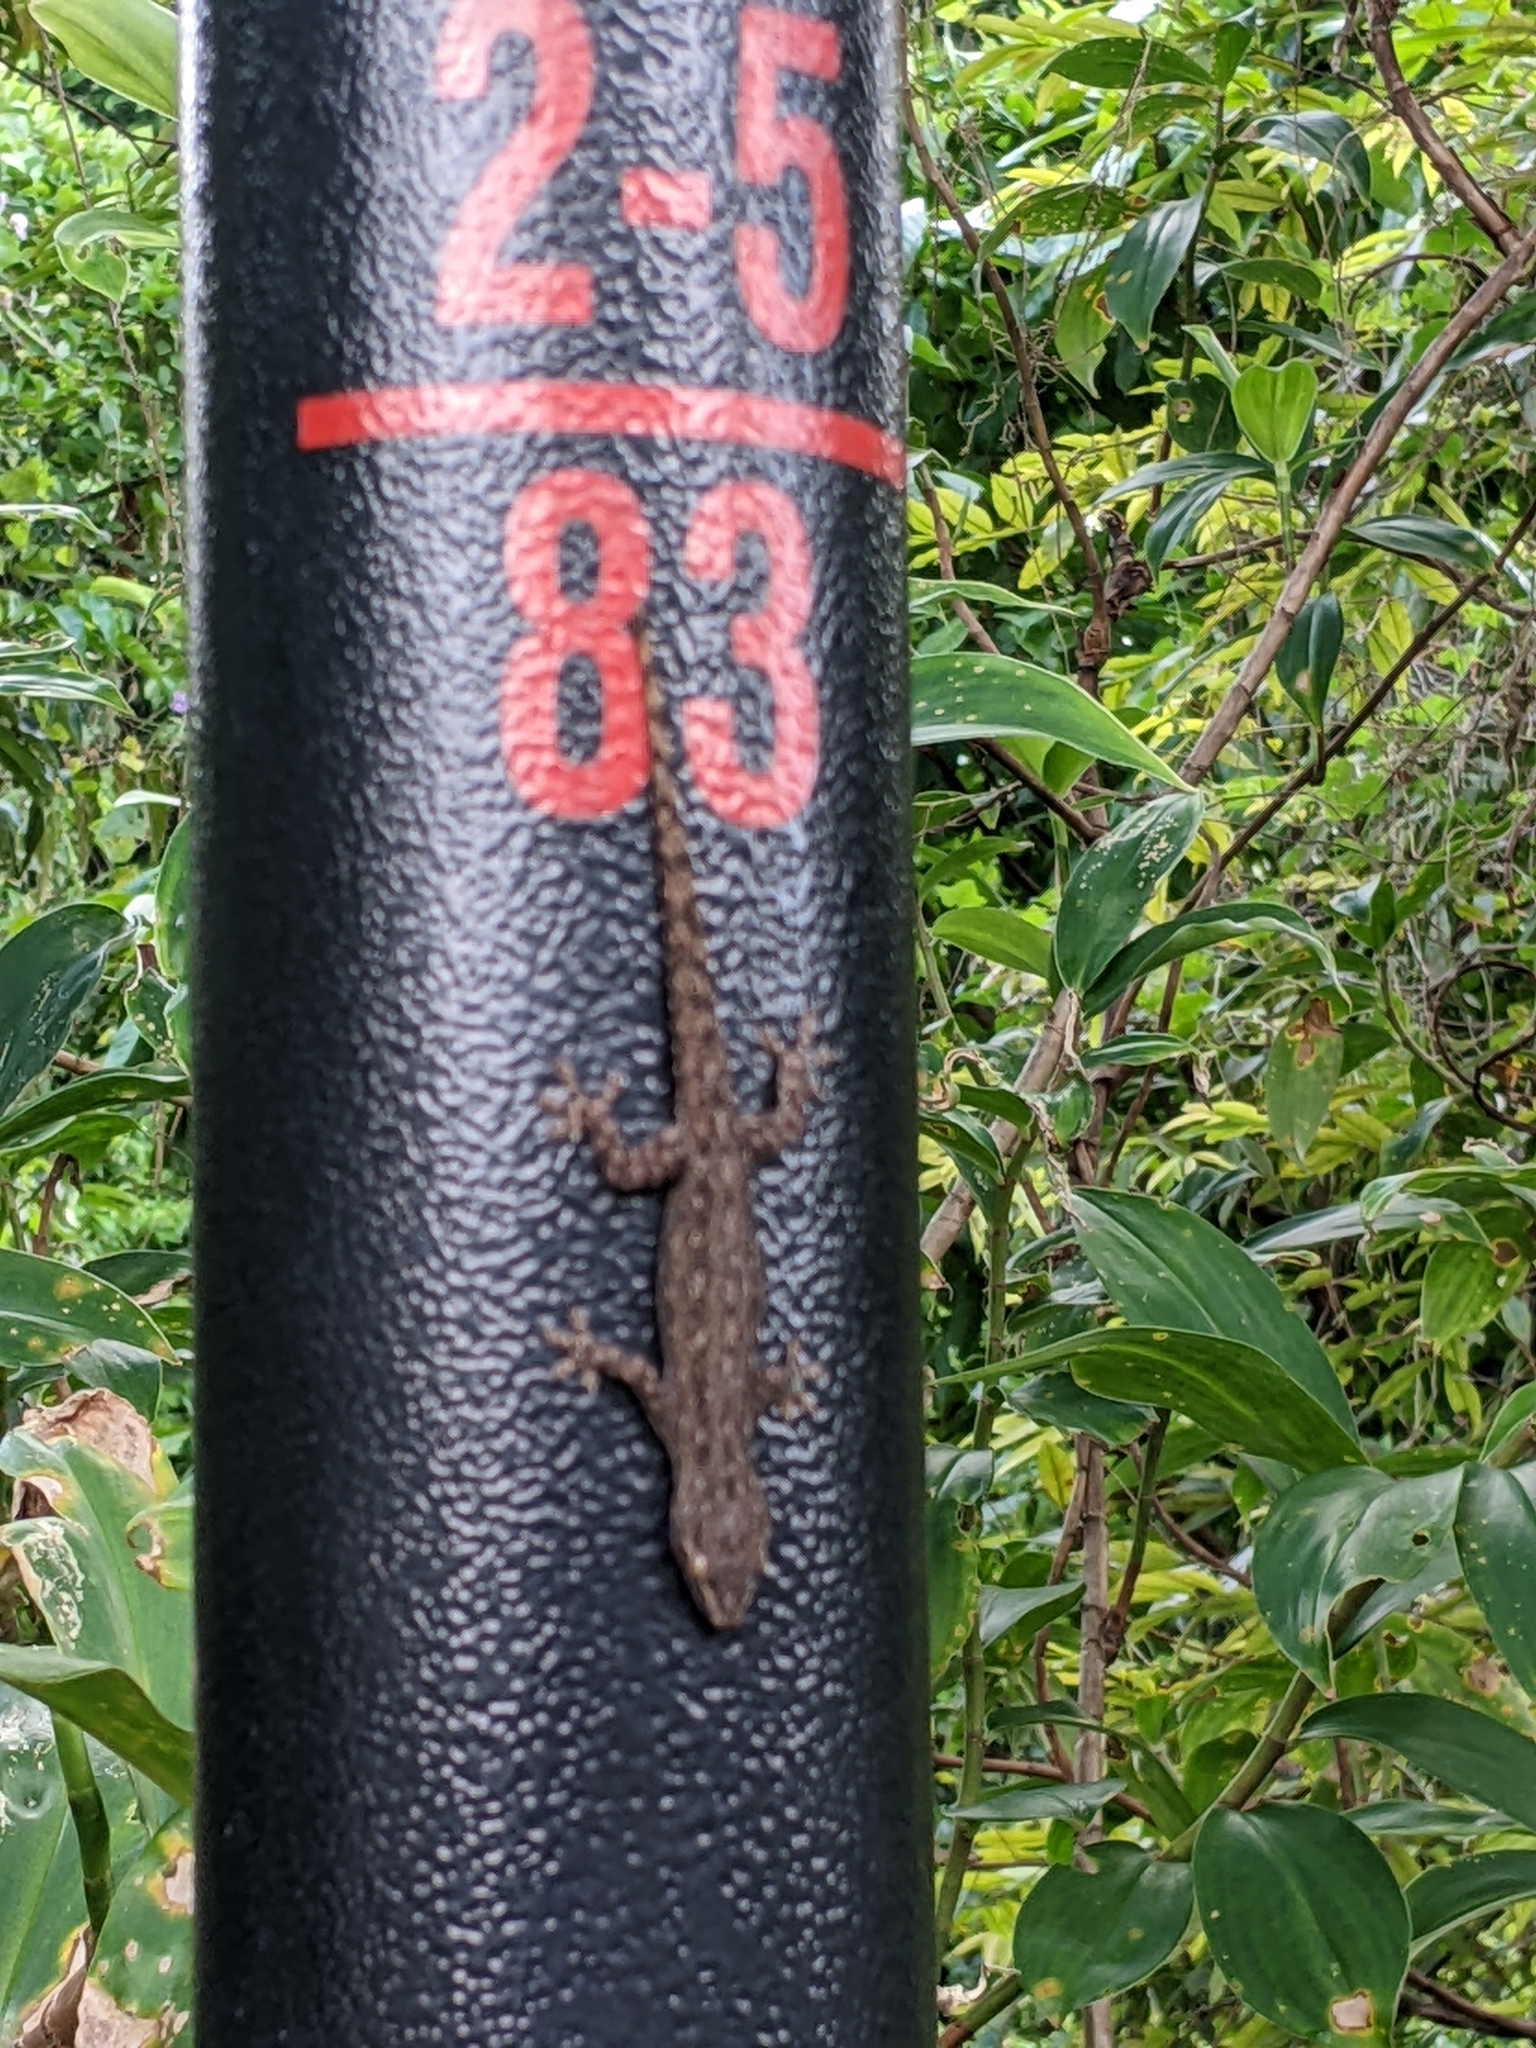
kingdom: Animalia
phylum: Chordata
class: Squamata
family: Gekkonidae
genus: Hemidactylus
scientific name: Hemidactylus frenatus
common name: Common house gecko
